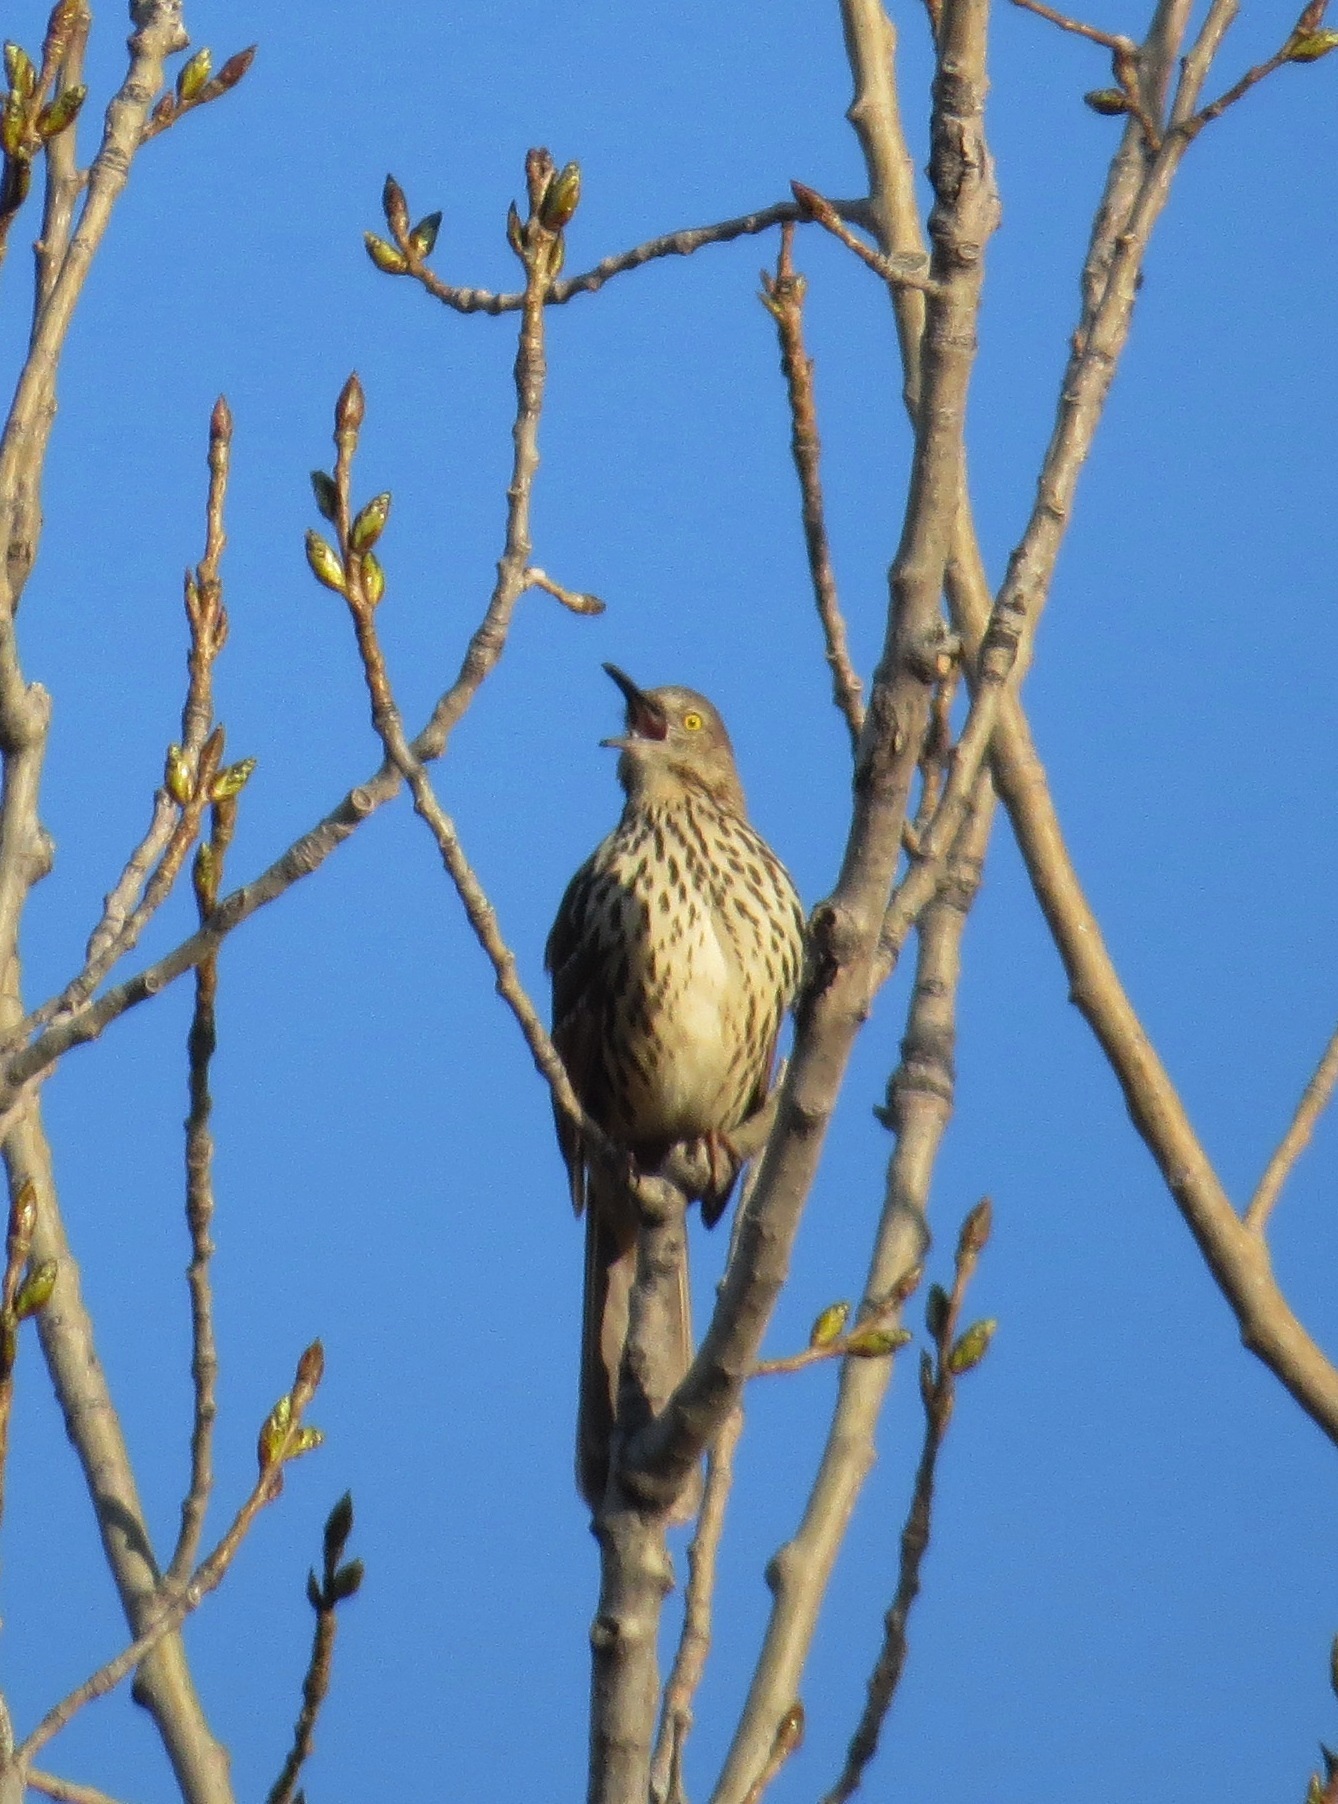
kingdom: Animalia
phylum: Chordata
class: Aves
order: Passeriformes
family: Mimidae
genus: Toxostoma
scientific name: Toxostoma rufum
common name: Brown thrasher
